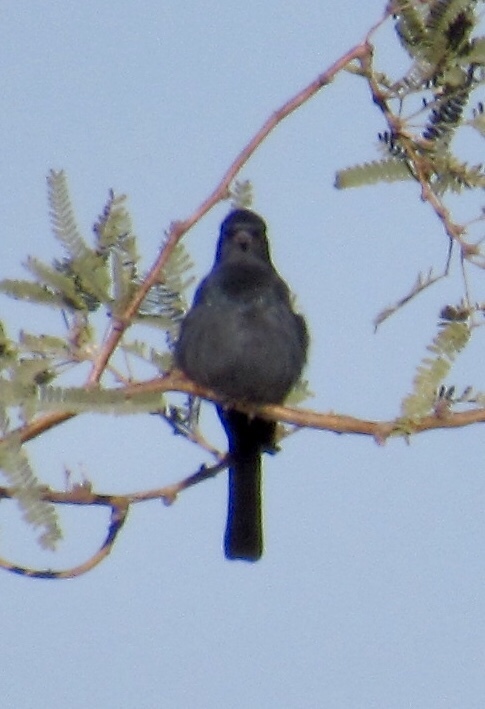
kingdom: Animalia
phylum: Chordata
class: Aves
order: Passeriformes
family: Ptilogonatidae
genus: Phainopepla
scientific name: Phainopepla nitens
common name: Phainopepla
